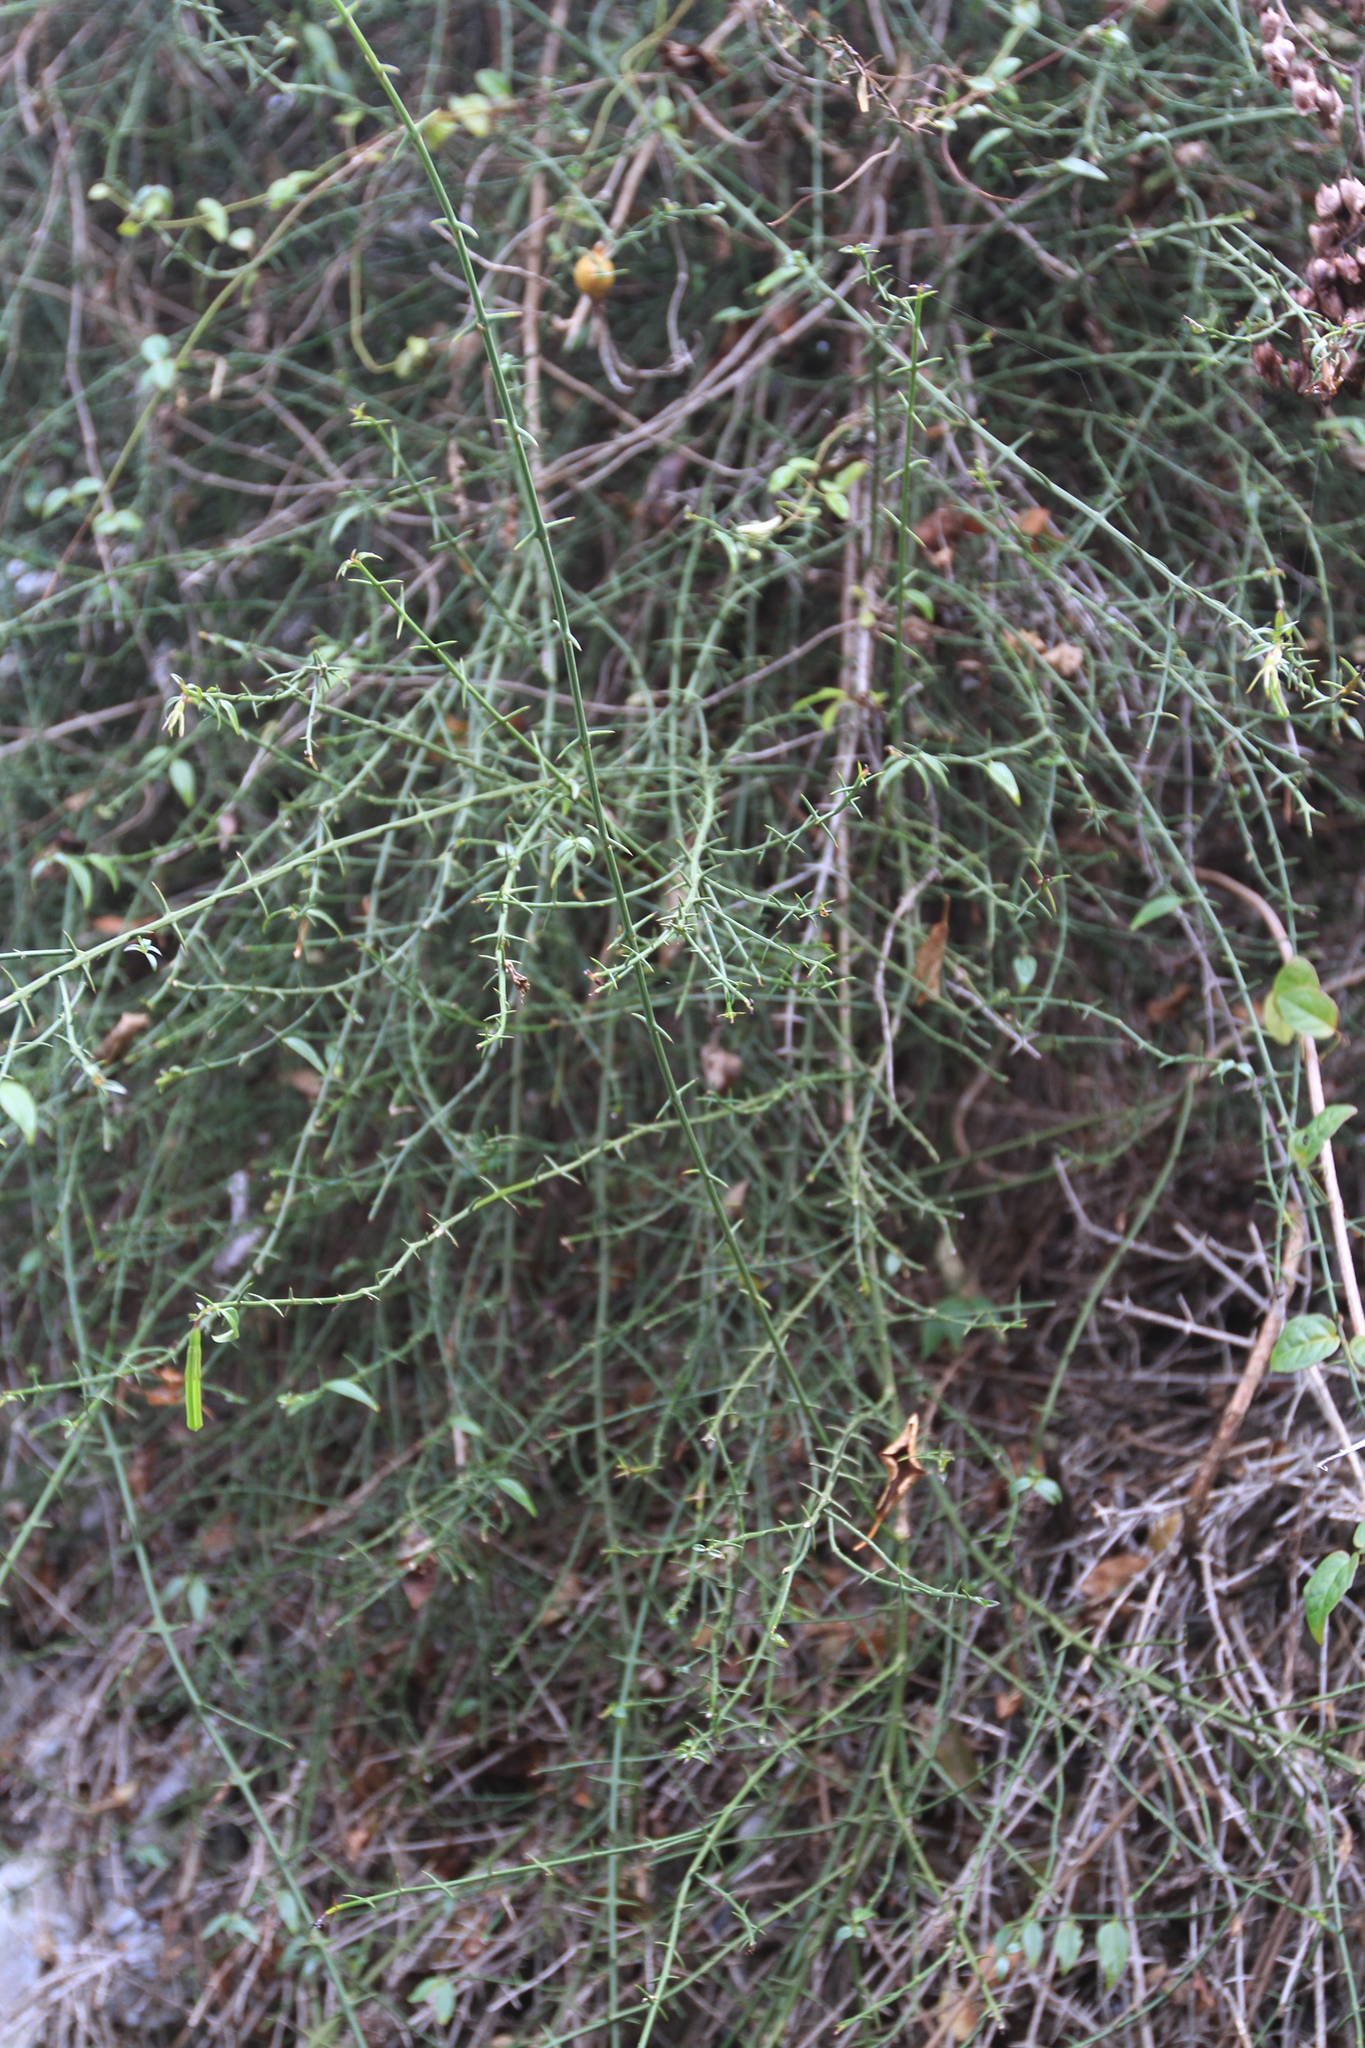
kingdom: Plantae
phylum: Tracheophyta
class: Magnoliopsida
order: Gentianales
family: Rubiaceae
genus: Catesbaea
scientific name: Catesbaea ekmaniana
